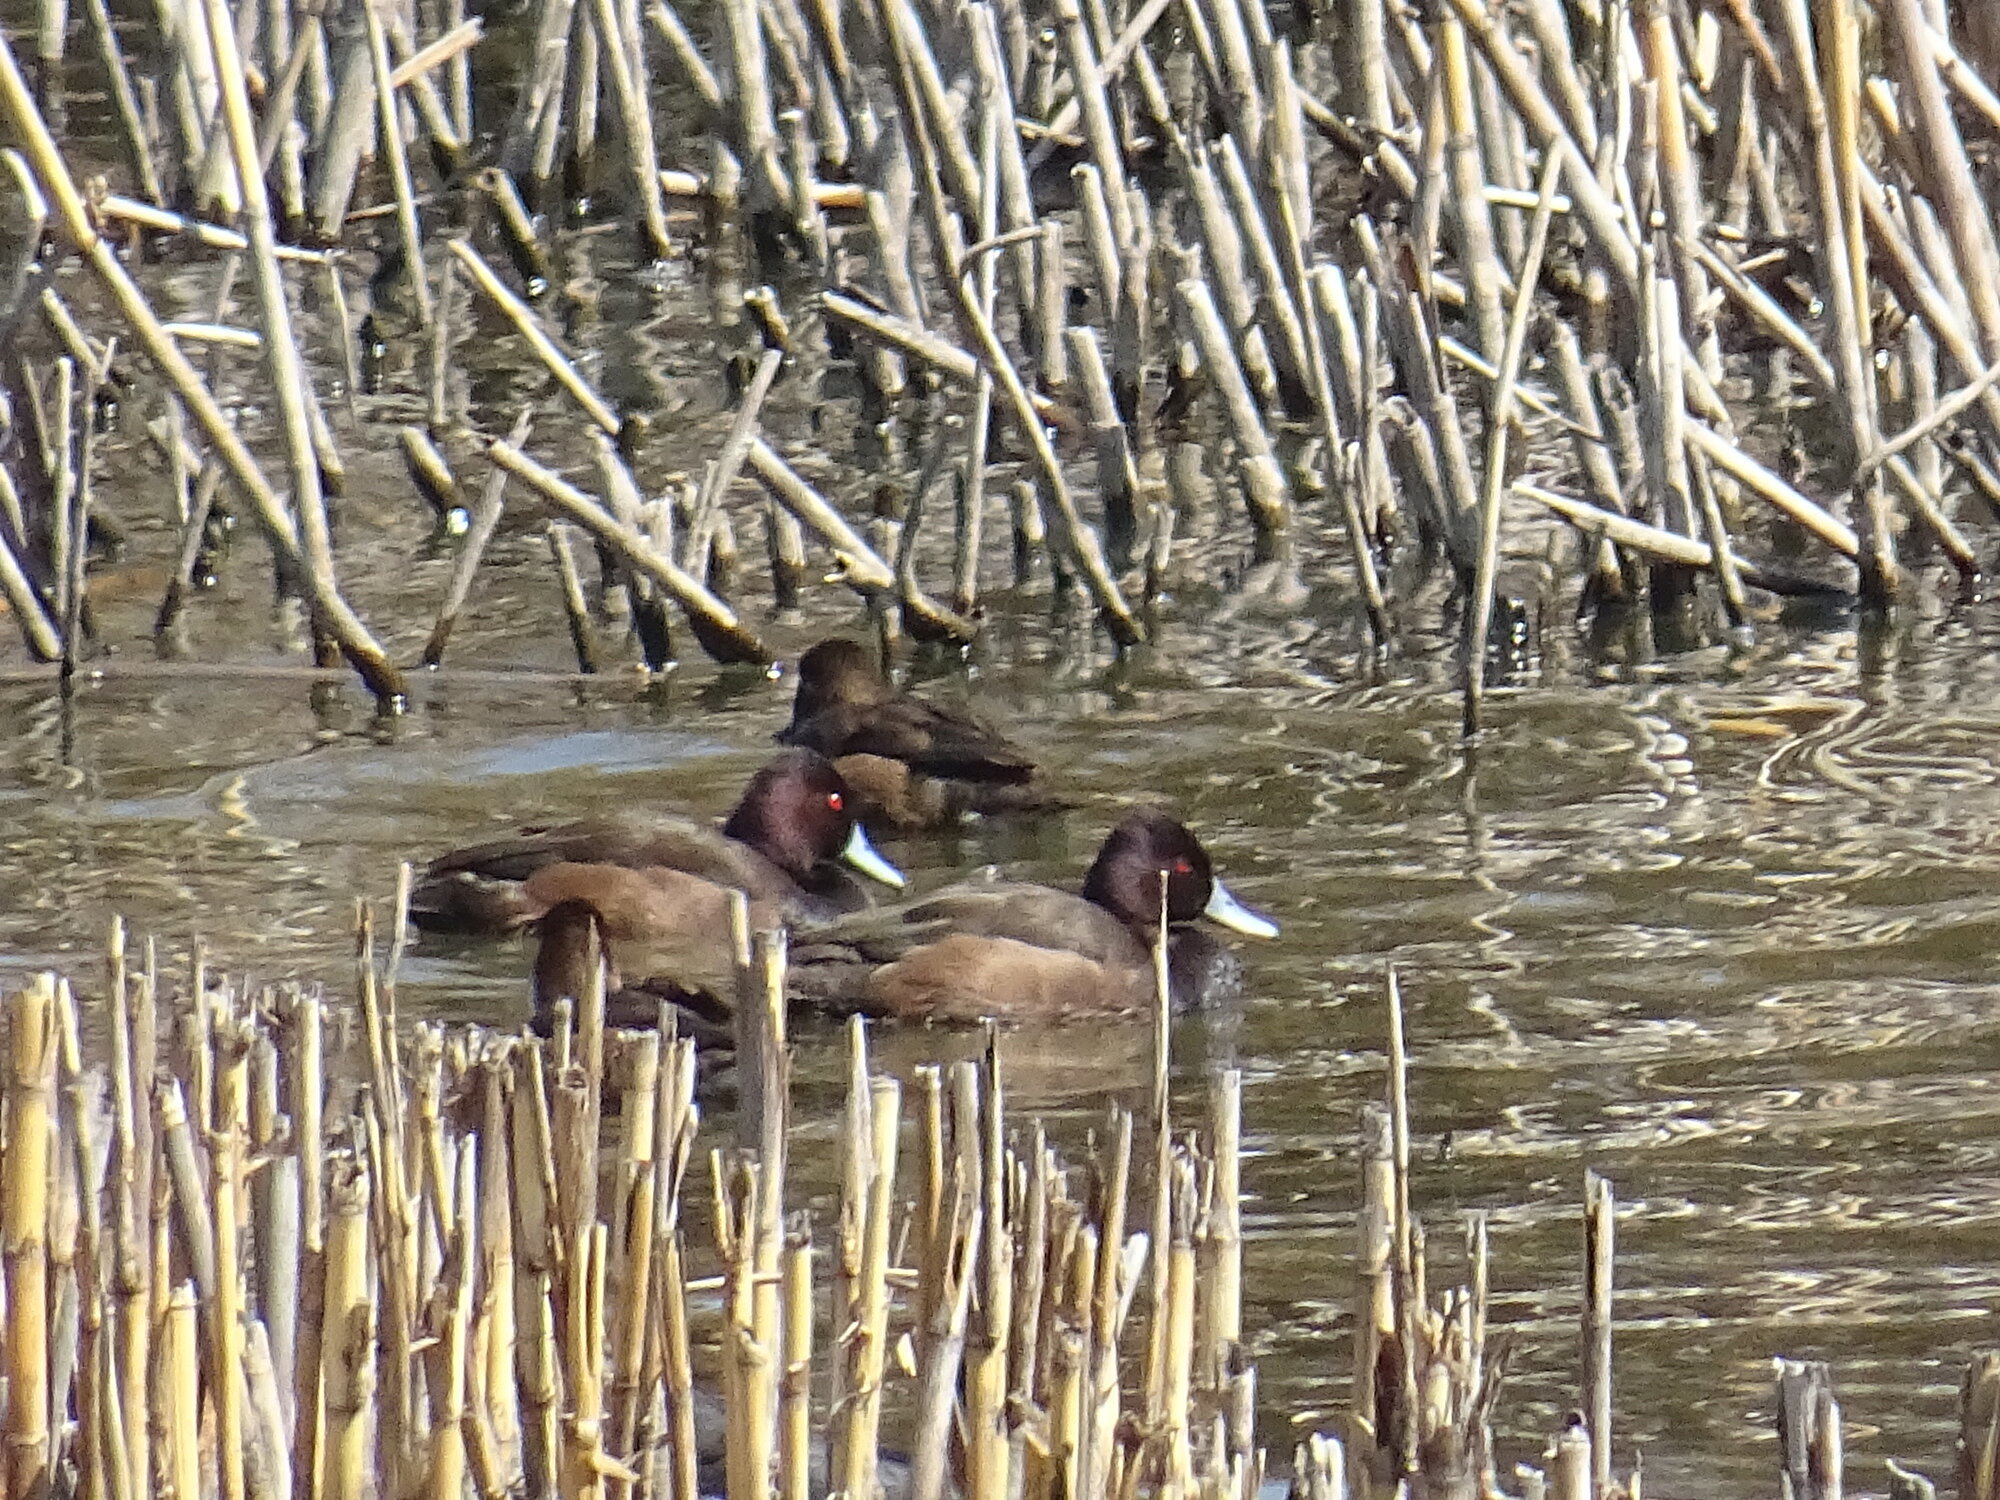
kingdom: Animalia
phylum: Chordata
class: Aves
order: Anseriformes
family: Anatidae
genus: Netta
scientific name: Netta erythrophthalma
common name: Southern pochard
